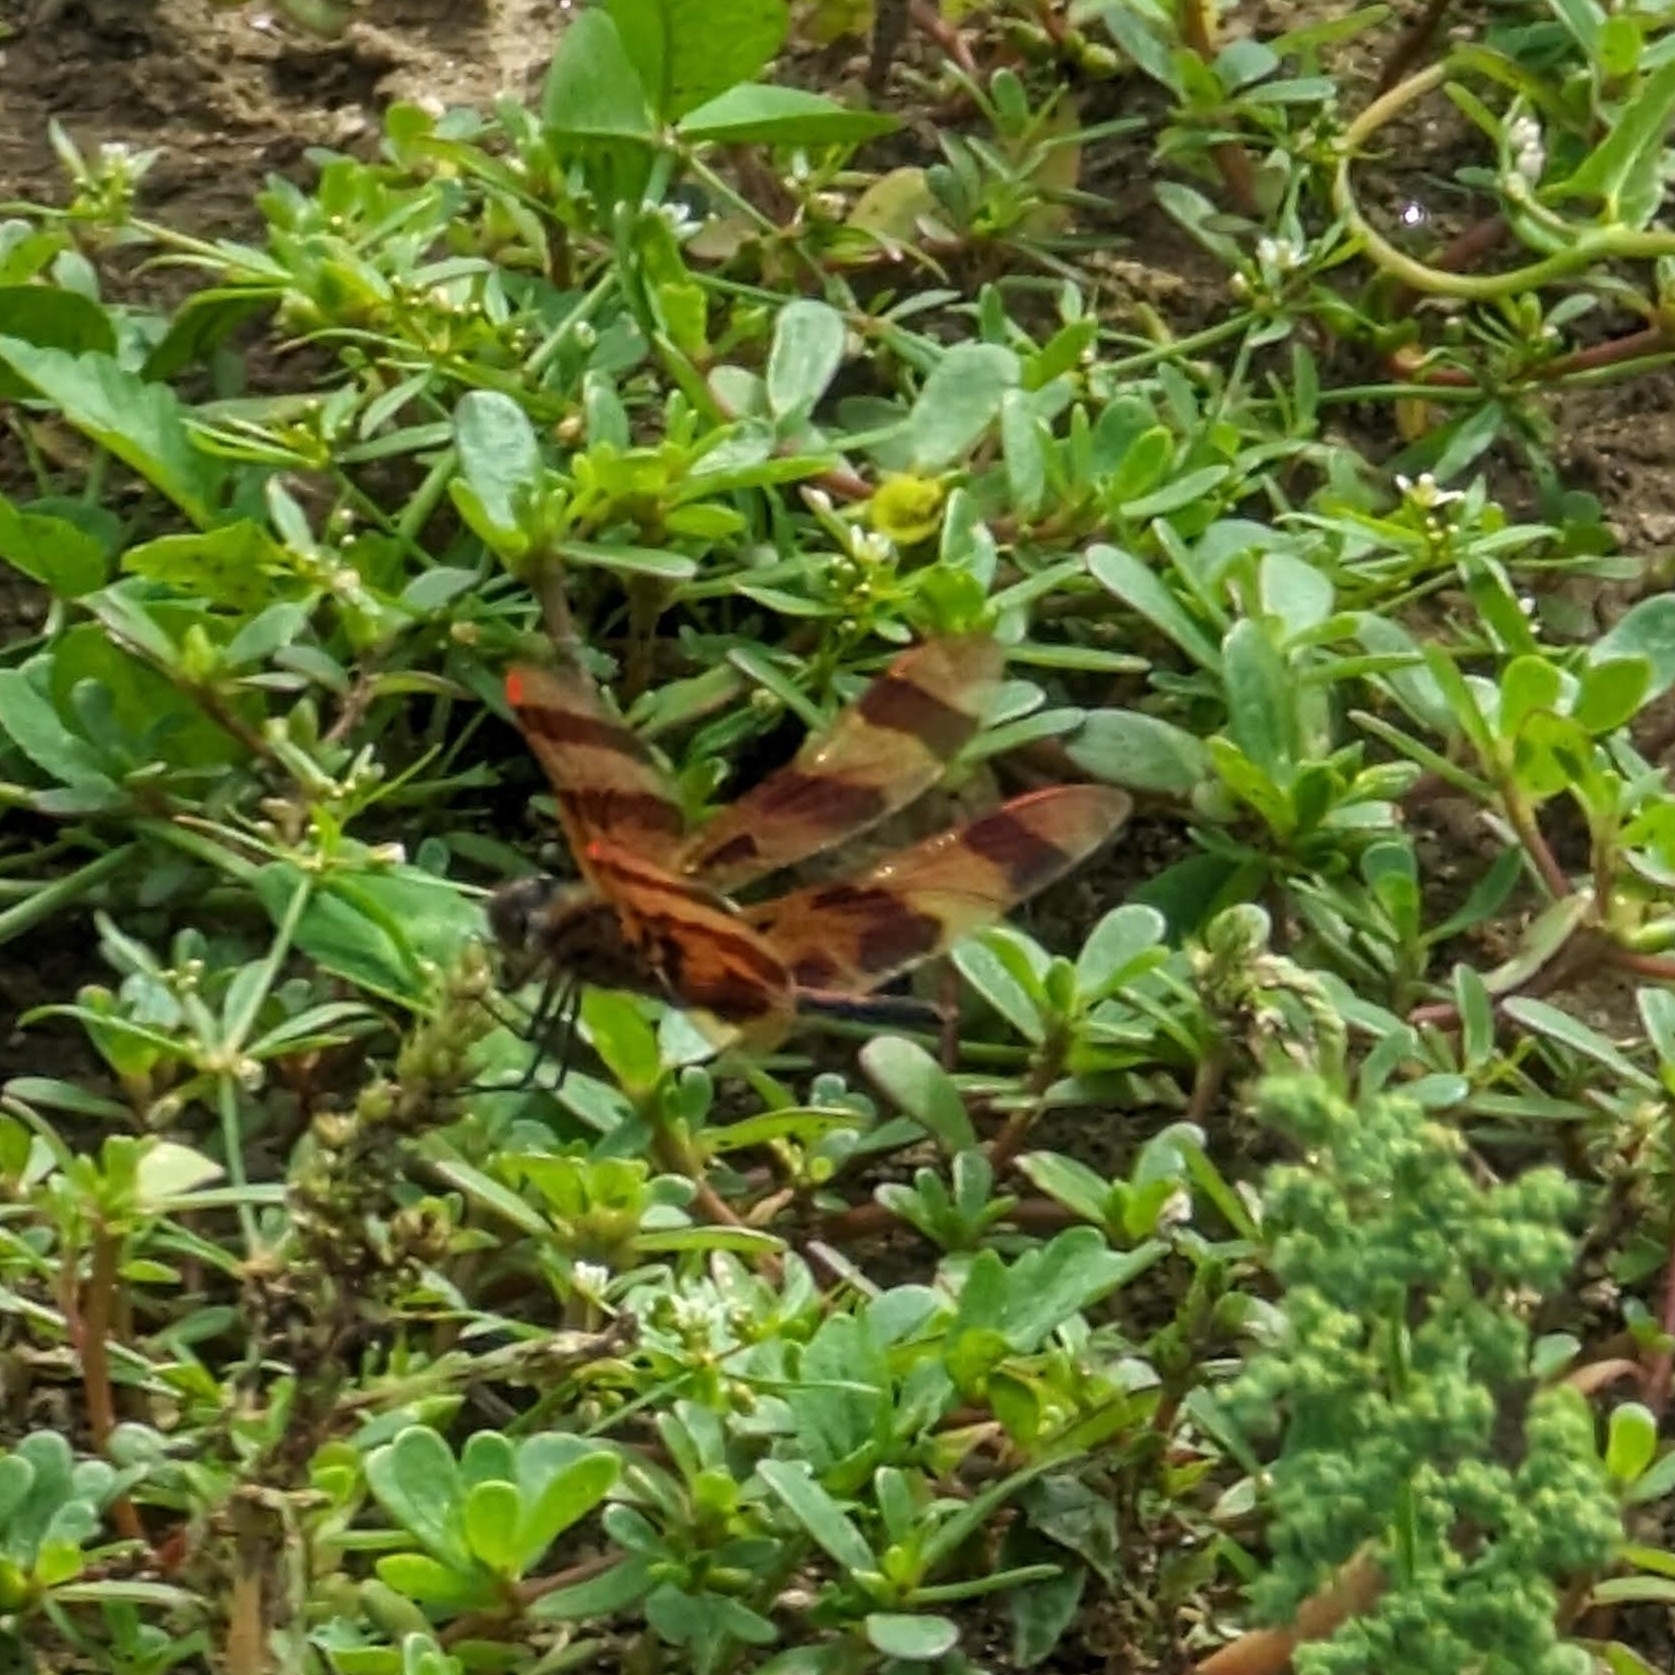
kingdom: Animalia
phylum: Arthropoda
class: Insecta
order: Odonata
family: Libellulidae
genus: Celithemis
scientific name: Celithemis eponina
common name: Halloween pennant
